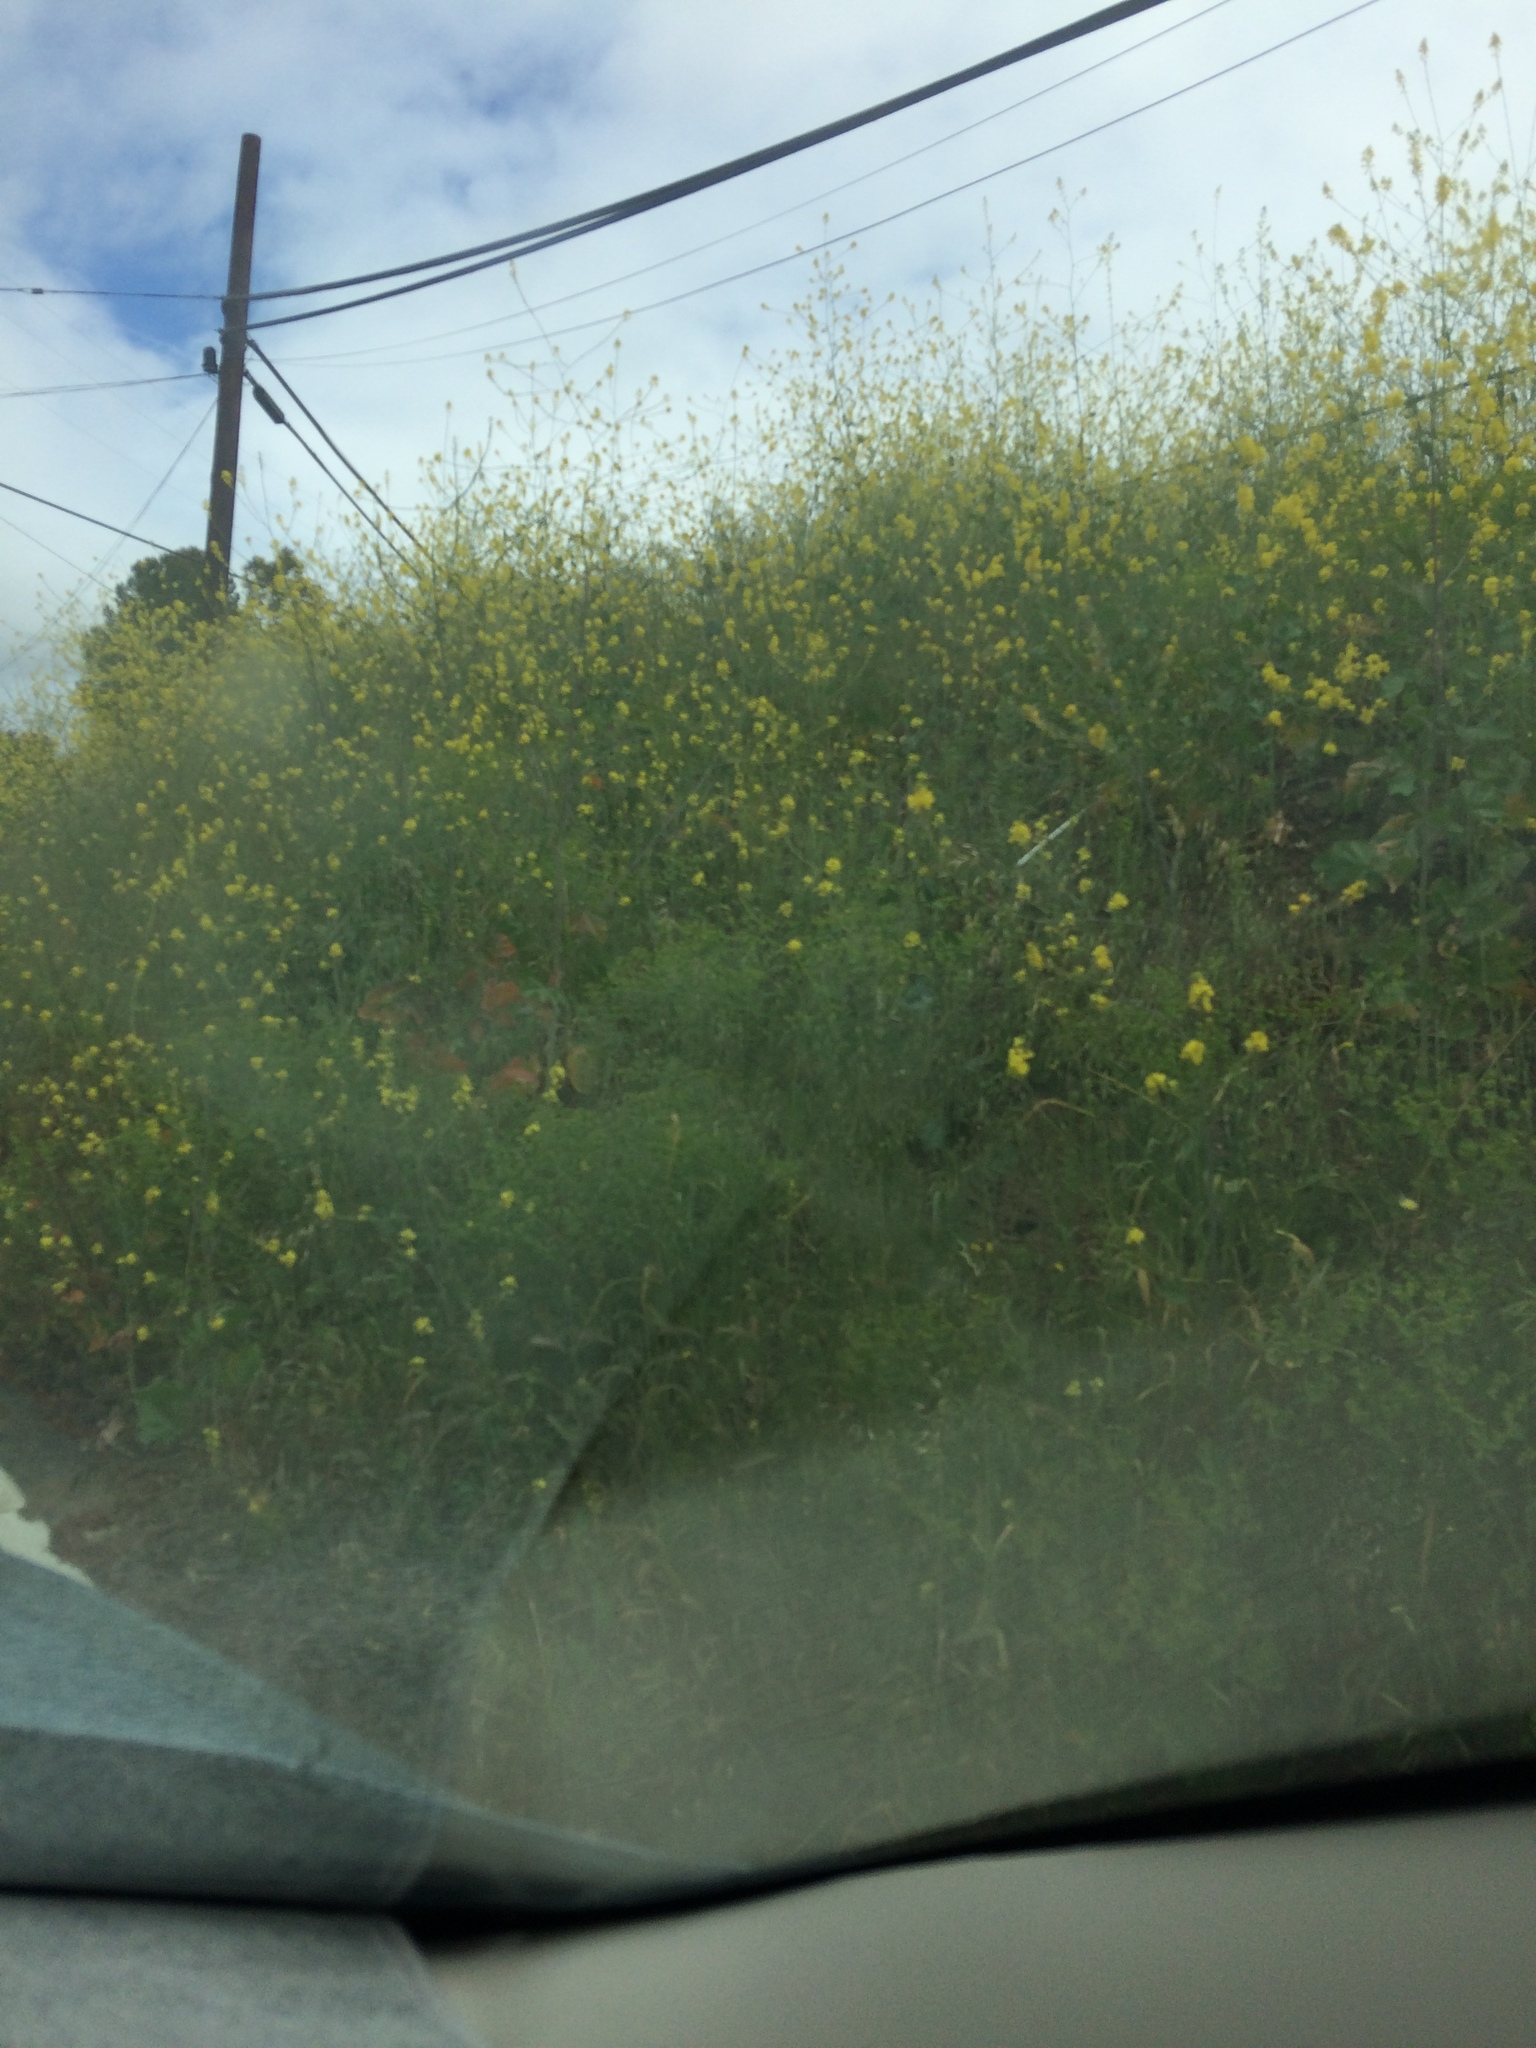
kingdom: Plantae
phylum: Tracheophyta
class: Magnoliopsida
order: Brassicales
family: Brassicaceae
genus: Brassica
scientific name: Brassica nigra
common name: Black mustard
